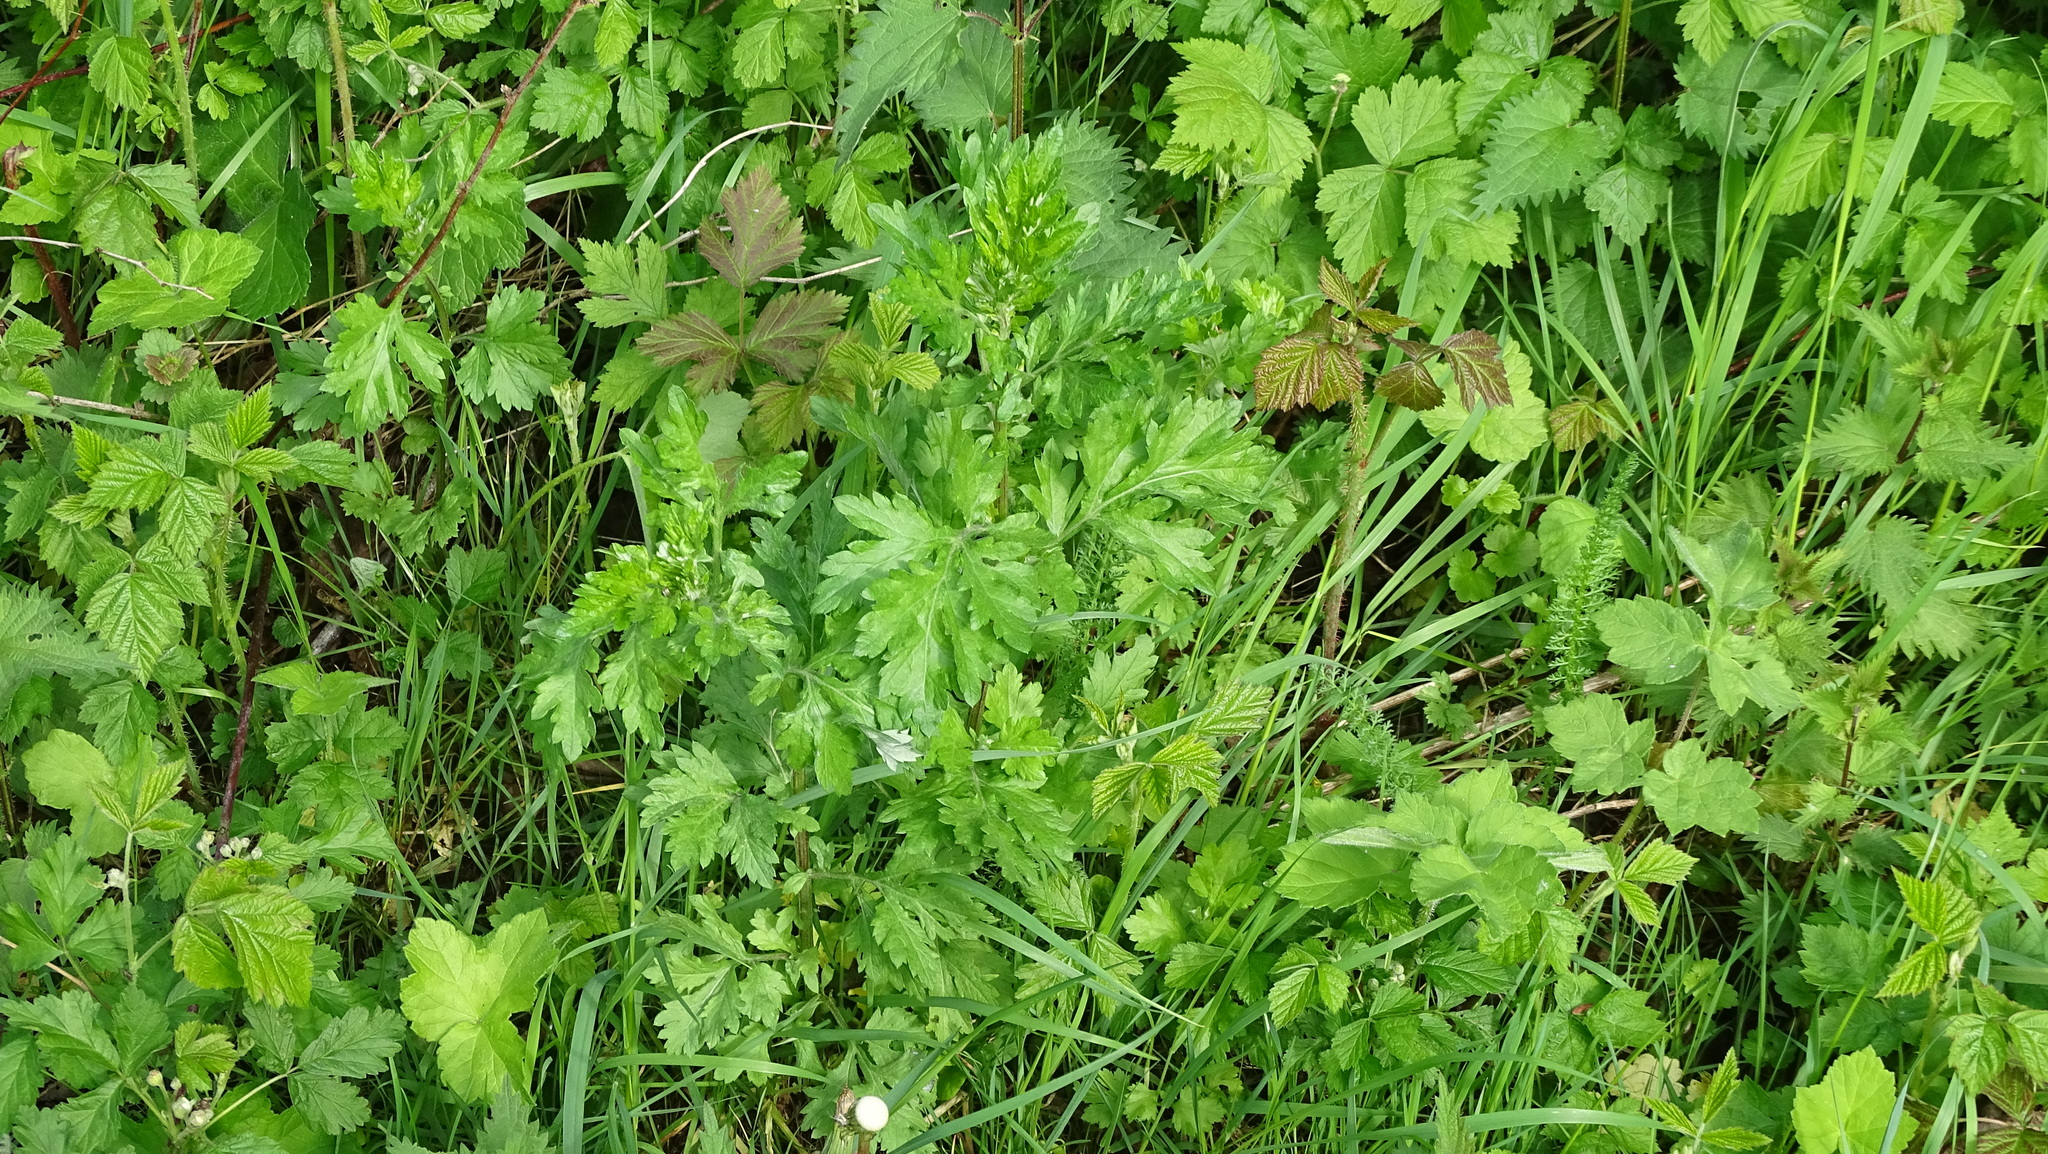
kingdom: Plantae
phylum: Tracheophyta
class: Magnoliopsida
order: Asterales
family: Asteraceae
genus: Artemisia
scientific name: Artemisia vulgaris
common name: Mugwort
